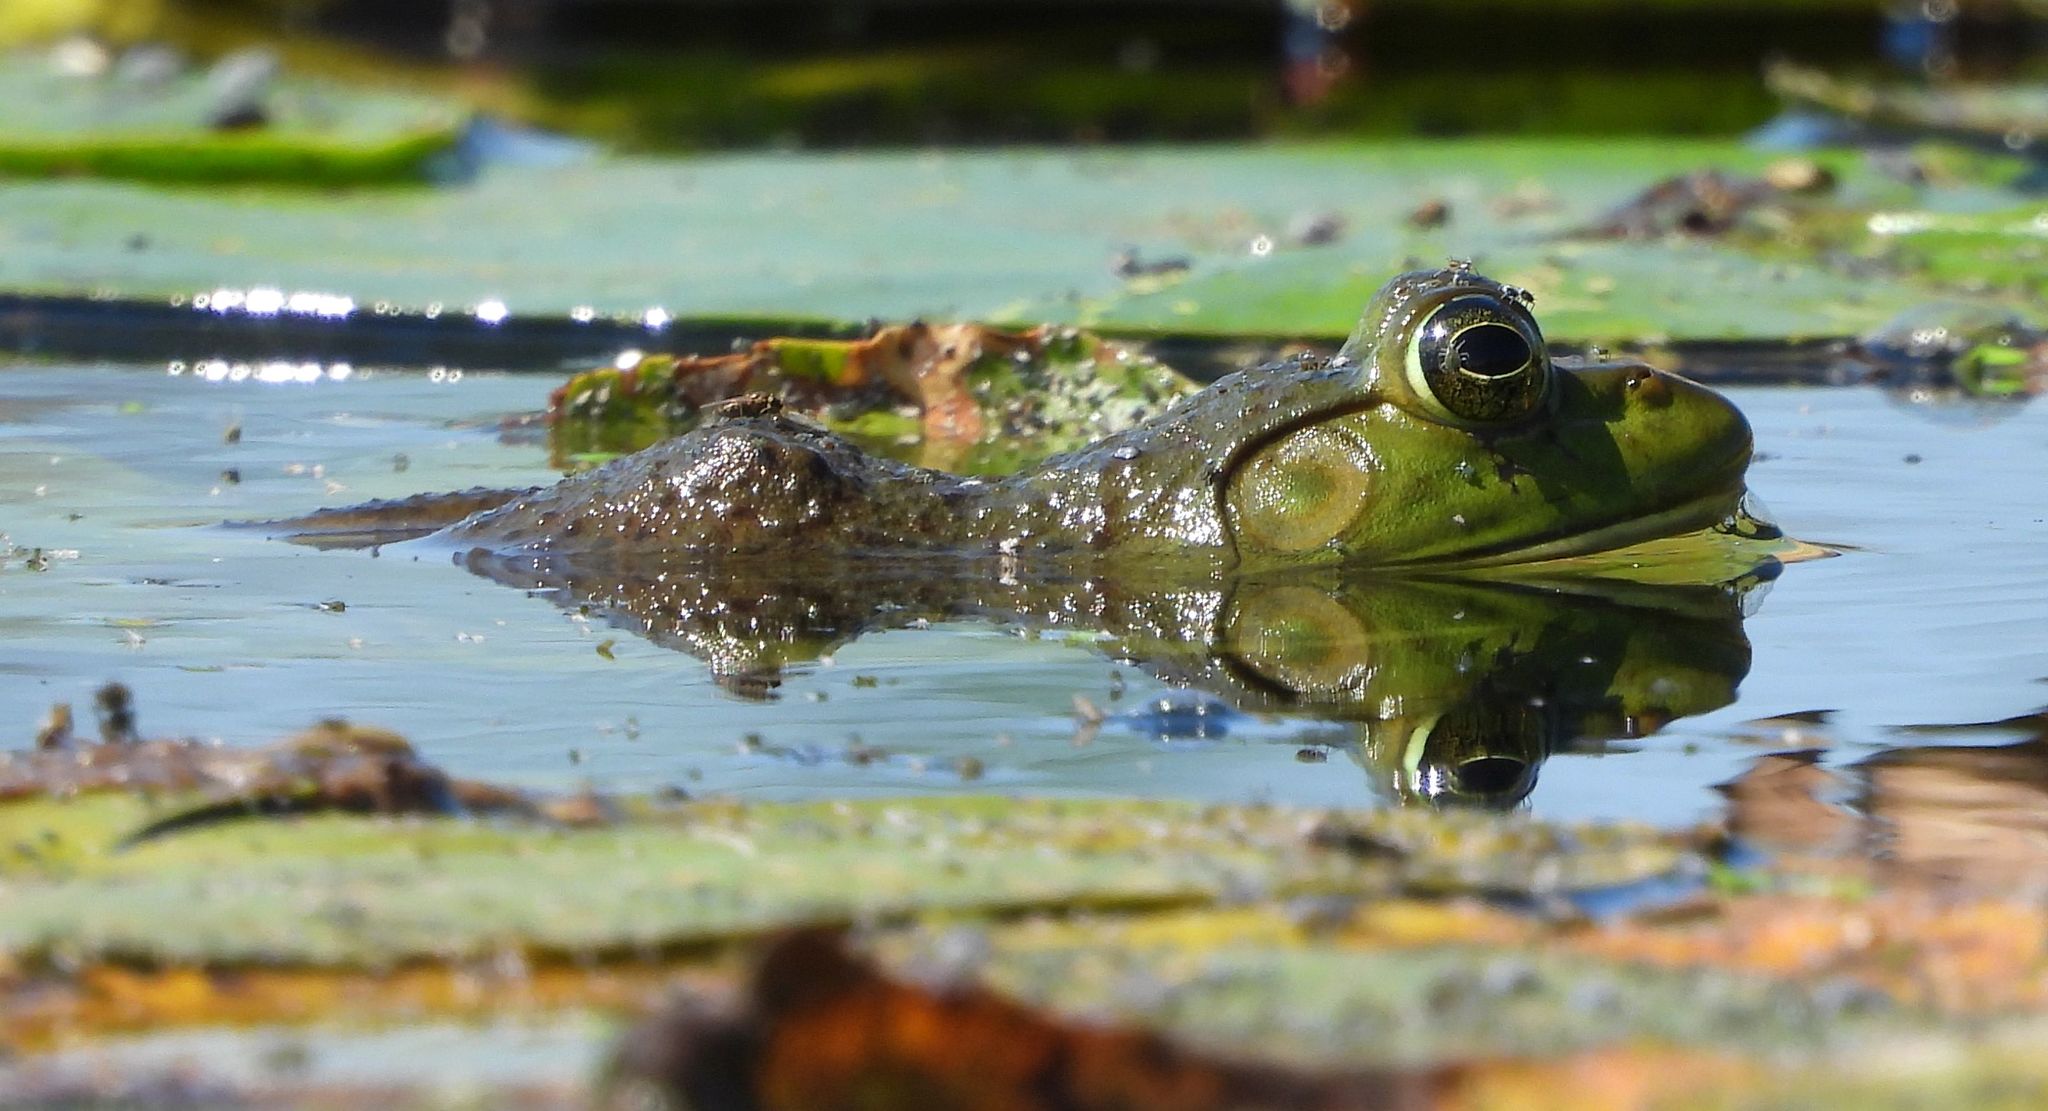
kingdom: Animalia
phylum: Chordata
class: Amphibia
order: Anura
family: Ranidae
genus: Lithobates
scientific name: Lithobates catesbeianus
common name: American bullfrog
